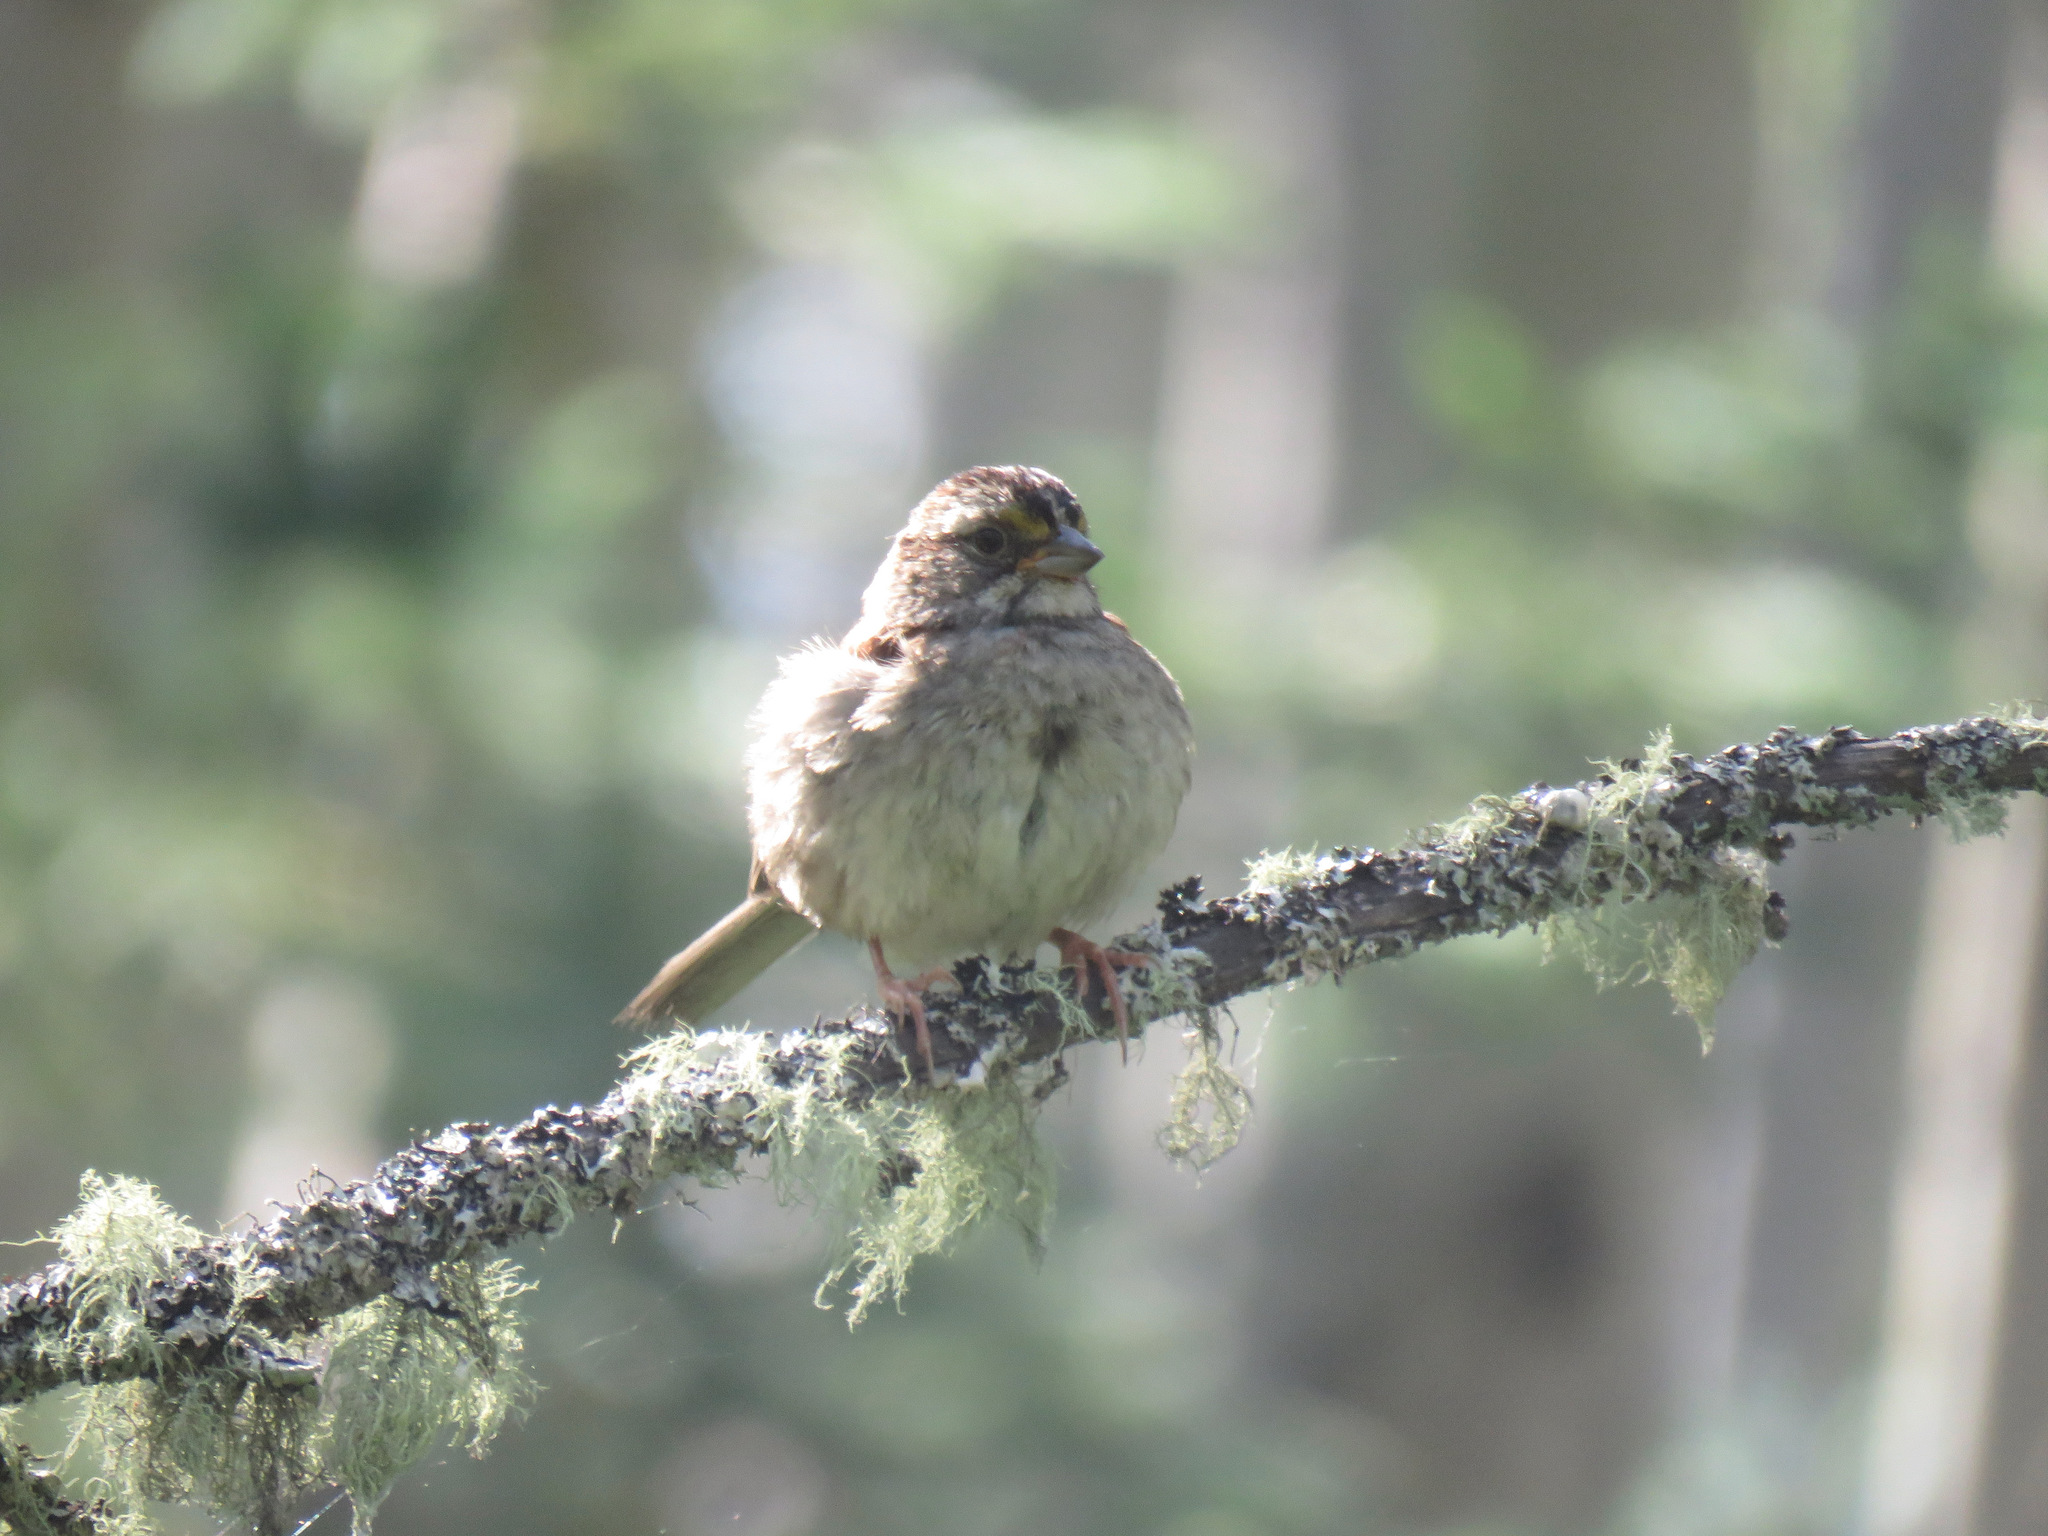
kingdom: Animalia
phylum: Chordata
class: Aves
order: Passeriformes
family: Passerellidae
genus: Zonotrichia
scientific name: Zonotrichia albicollis
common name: White-throated sparrow
